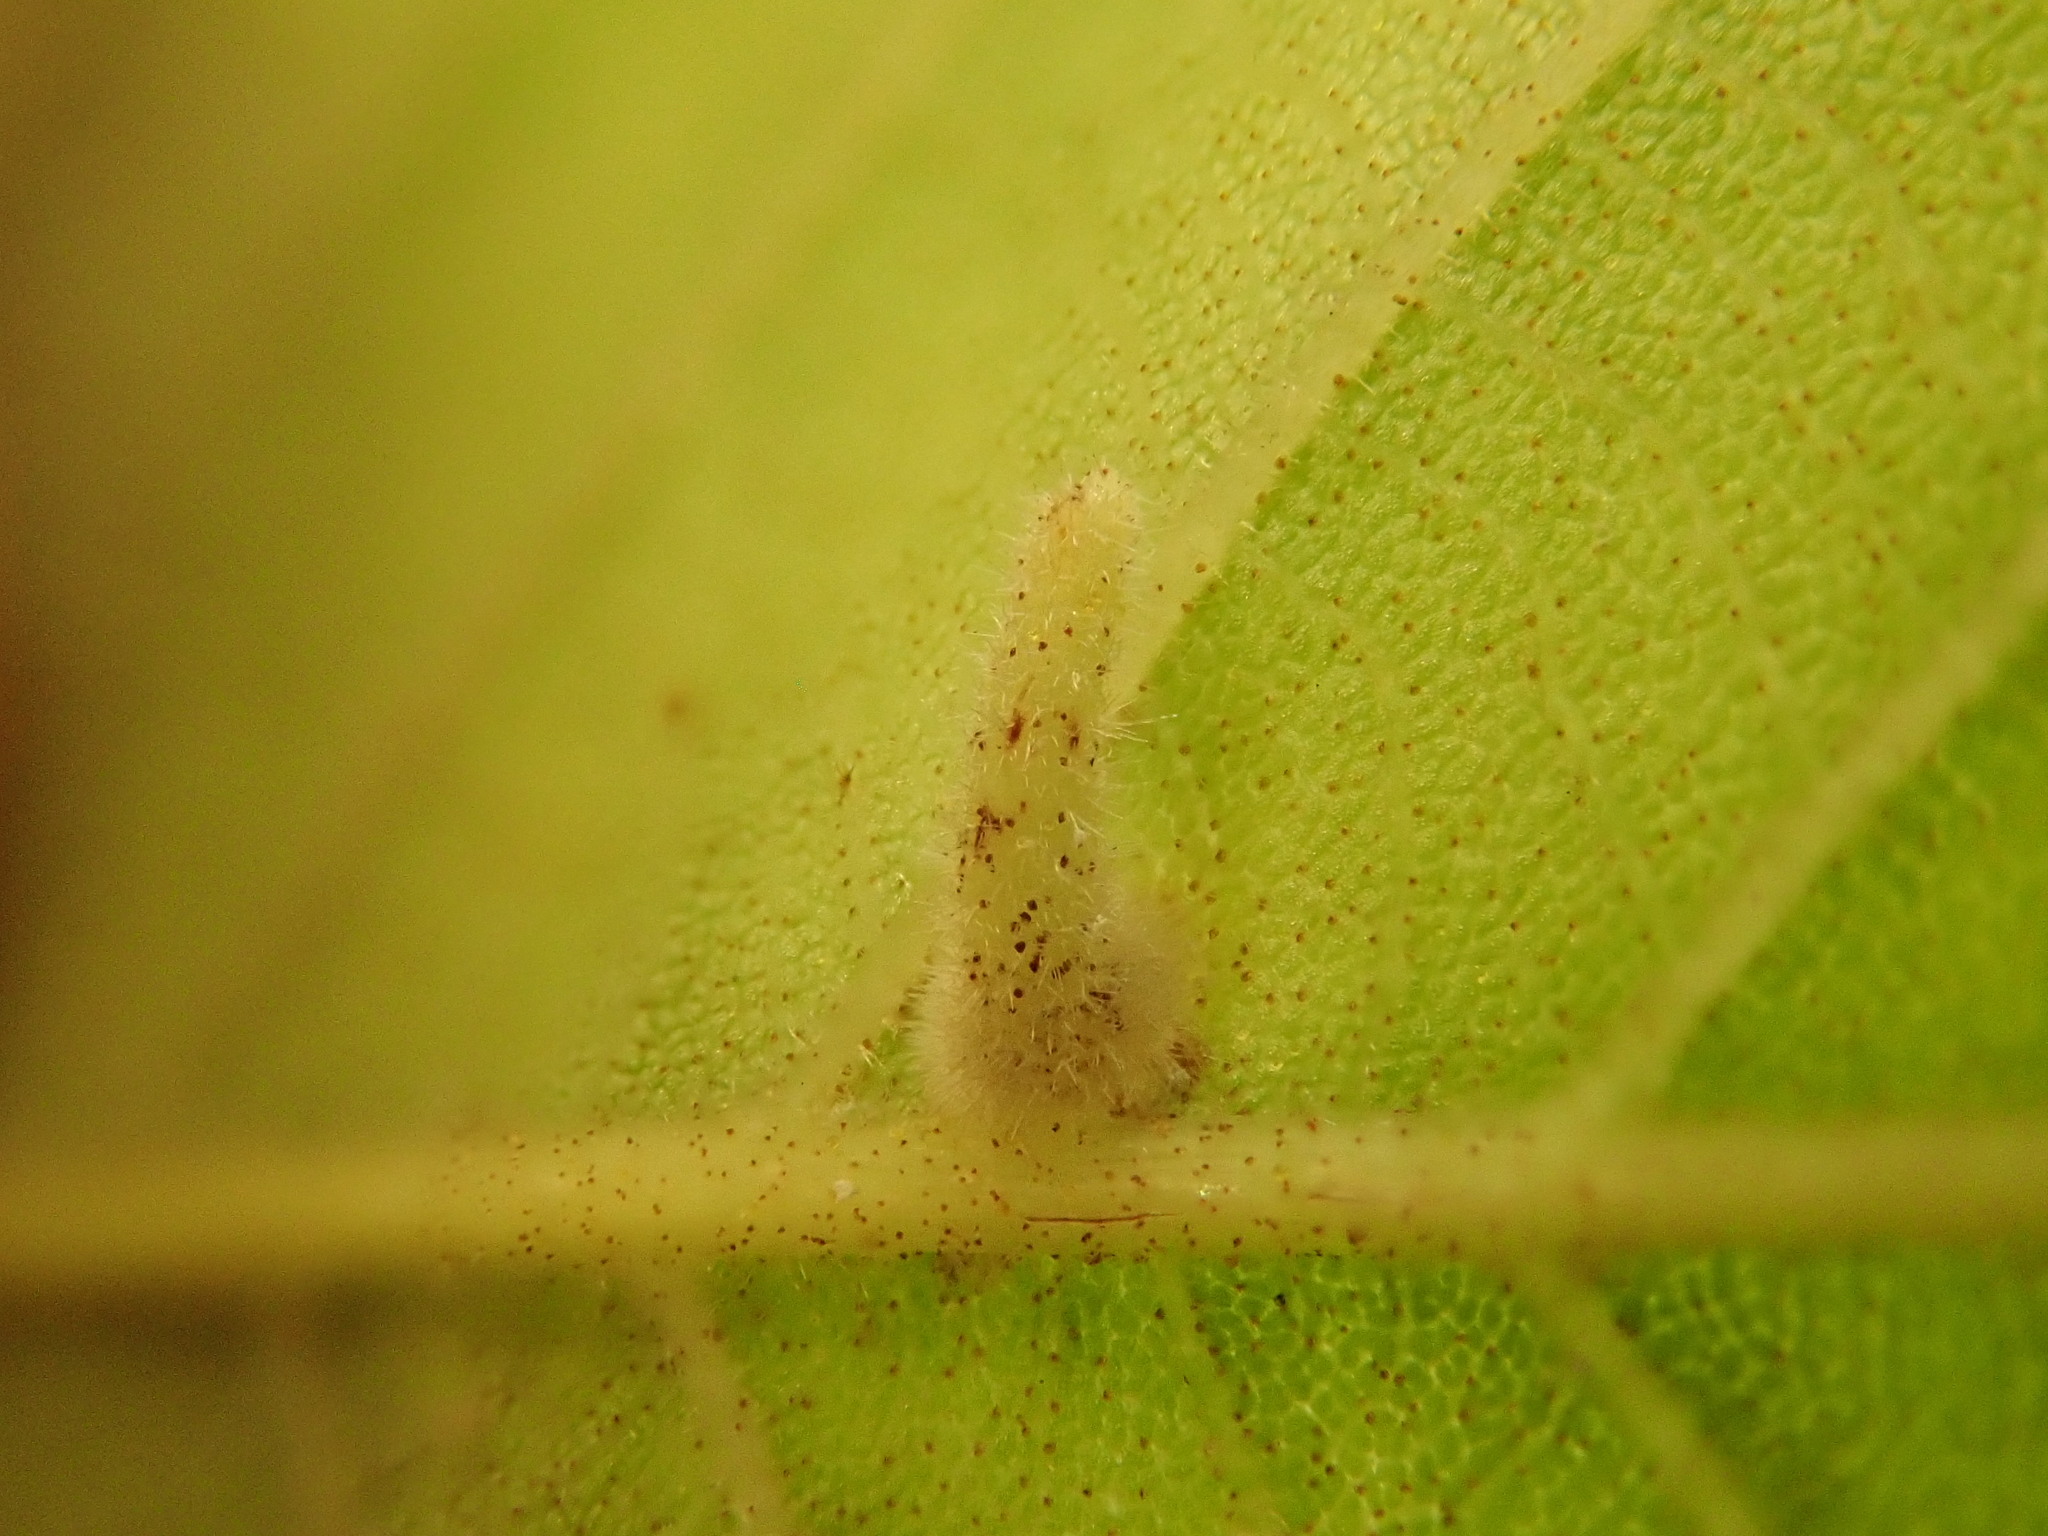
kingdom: Animalia
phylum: Arthropoda
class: Insecta
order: Diptera
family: Cecidomyiidae
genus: Caryomyia
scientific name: Caryomyia inclinata
